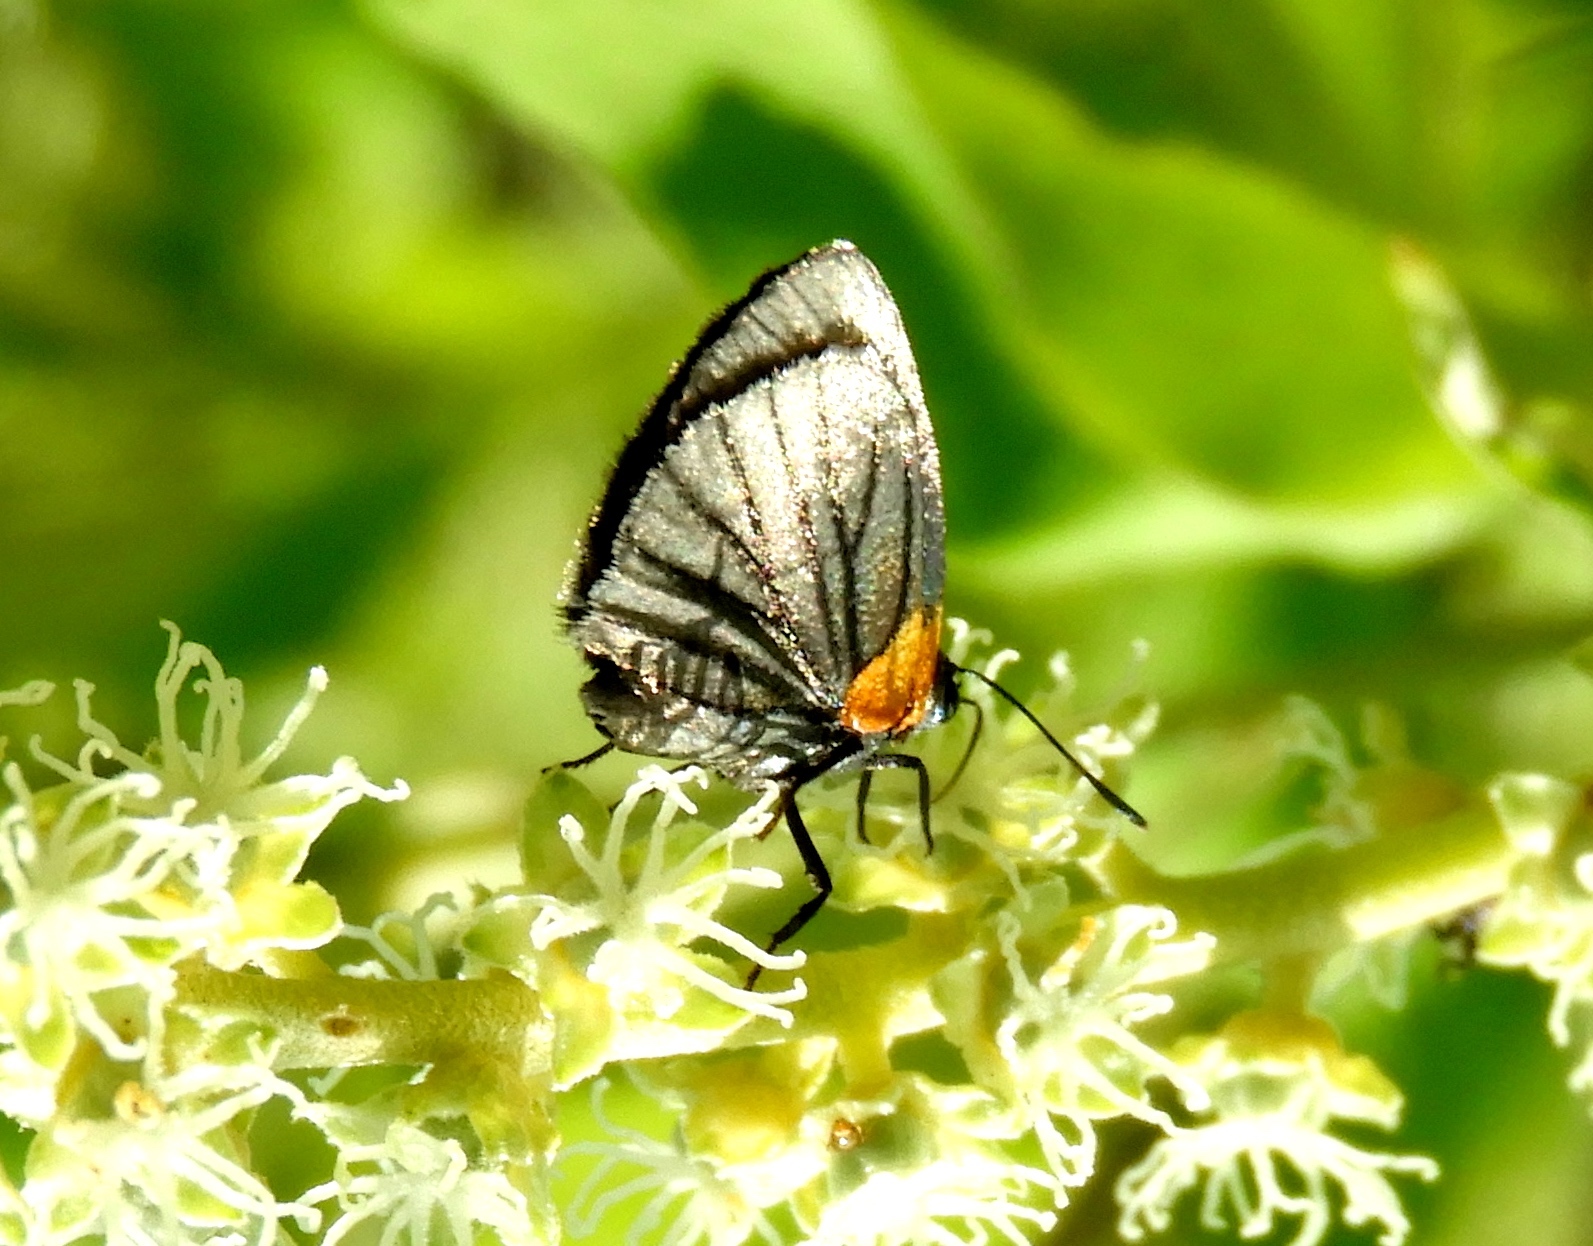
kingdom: Animalia
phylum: Arthropoda
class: Insecta
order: Lepidoptera
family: Lycaenidae
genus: Ipidecla
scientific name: Ipidecla miadora
